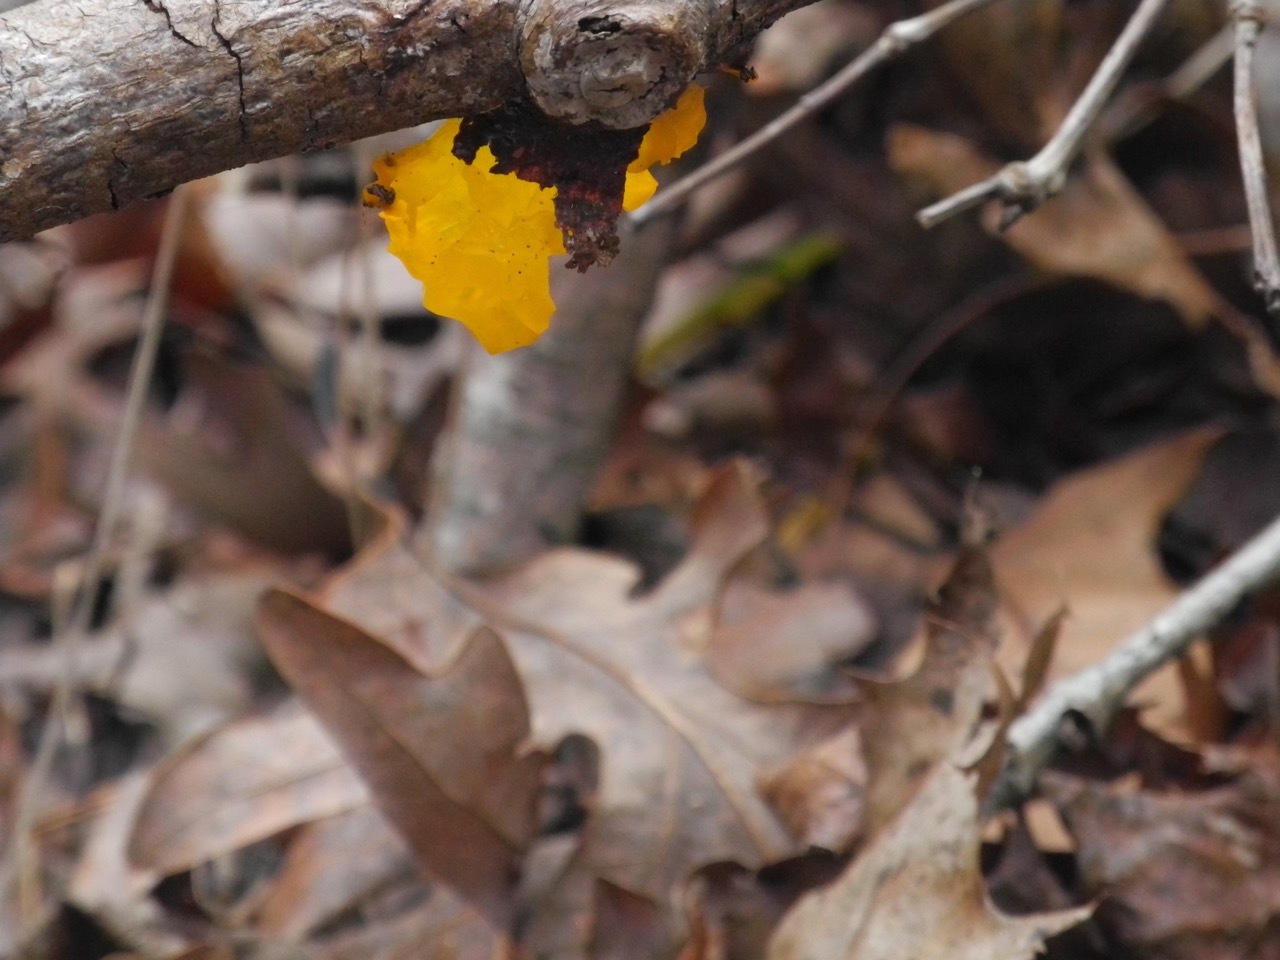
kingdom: Fungi
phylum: Basidiomycota
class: Dacrymycetes
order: Dacrymycetales
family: Dacrymycetaceae
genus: Dacrymyces
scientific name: Dacrymyces chrysospermus
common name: Orange jelly spot
